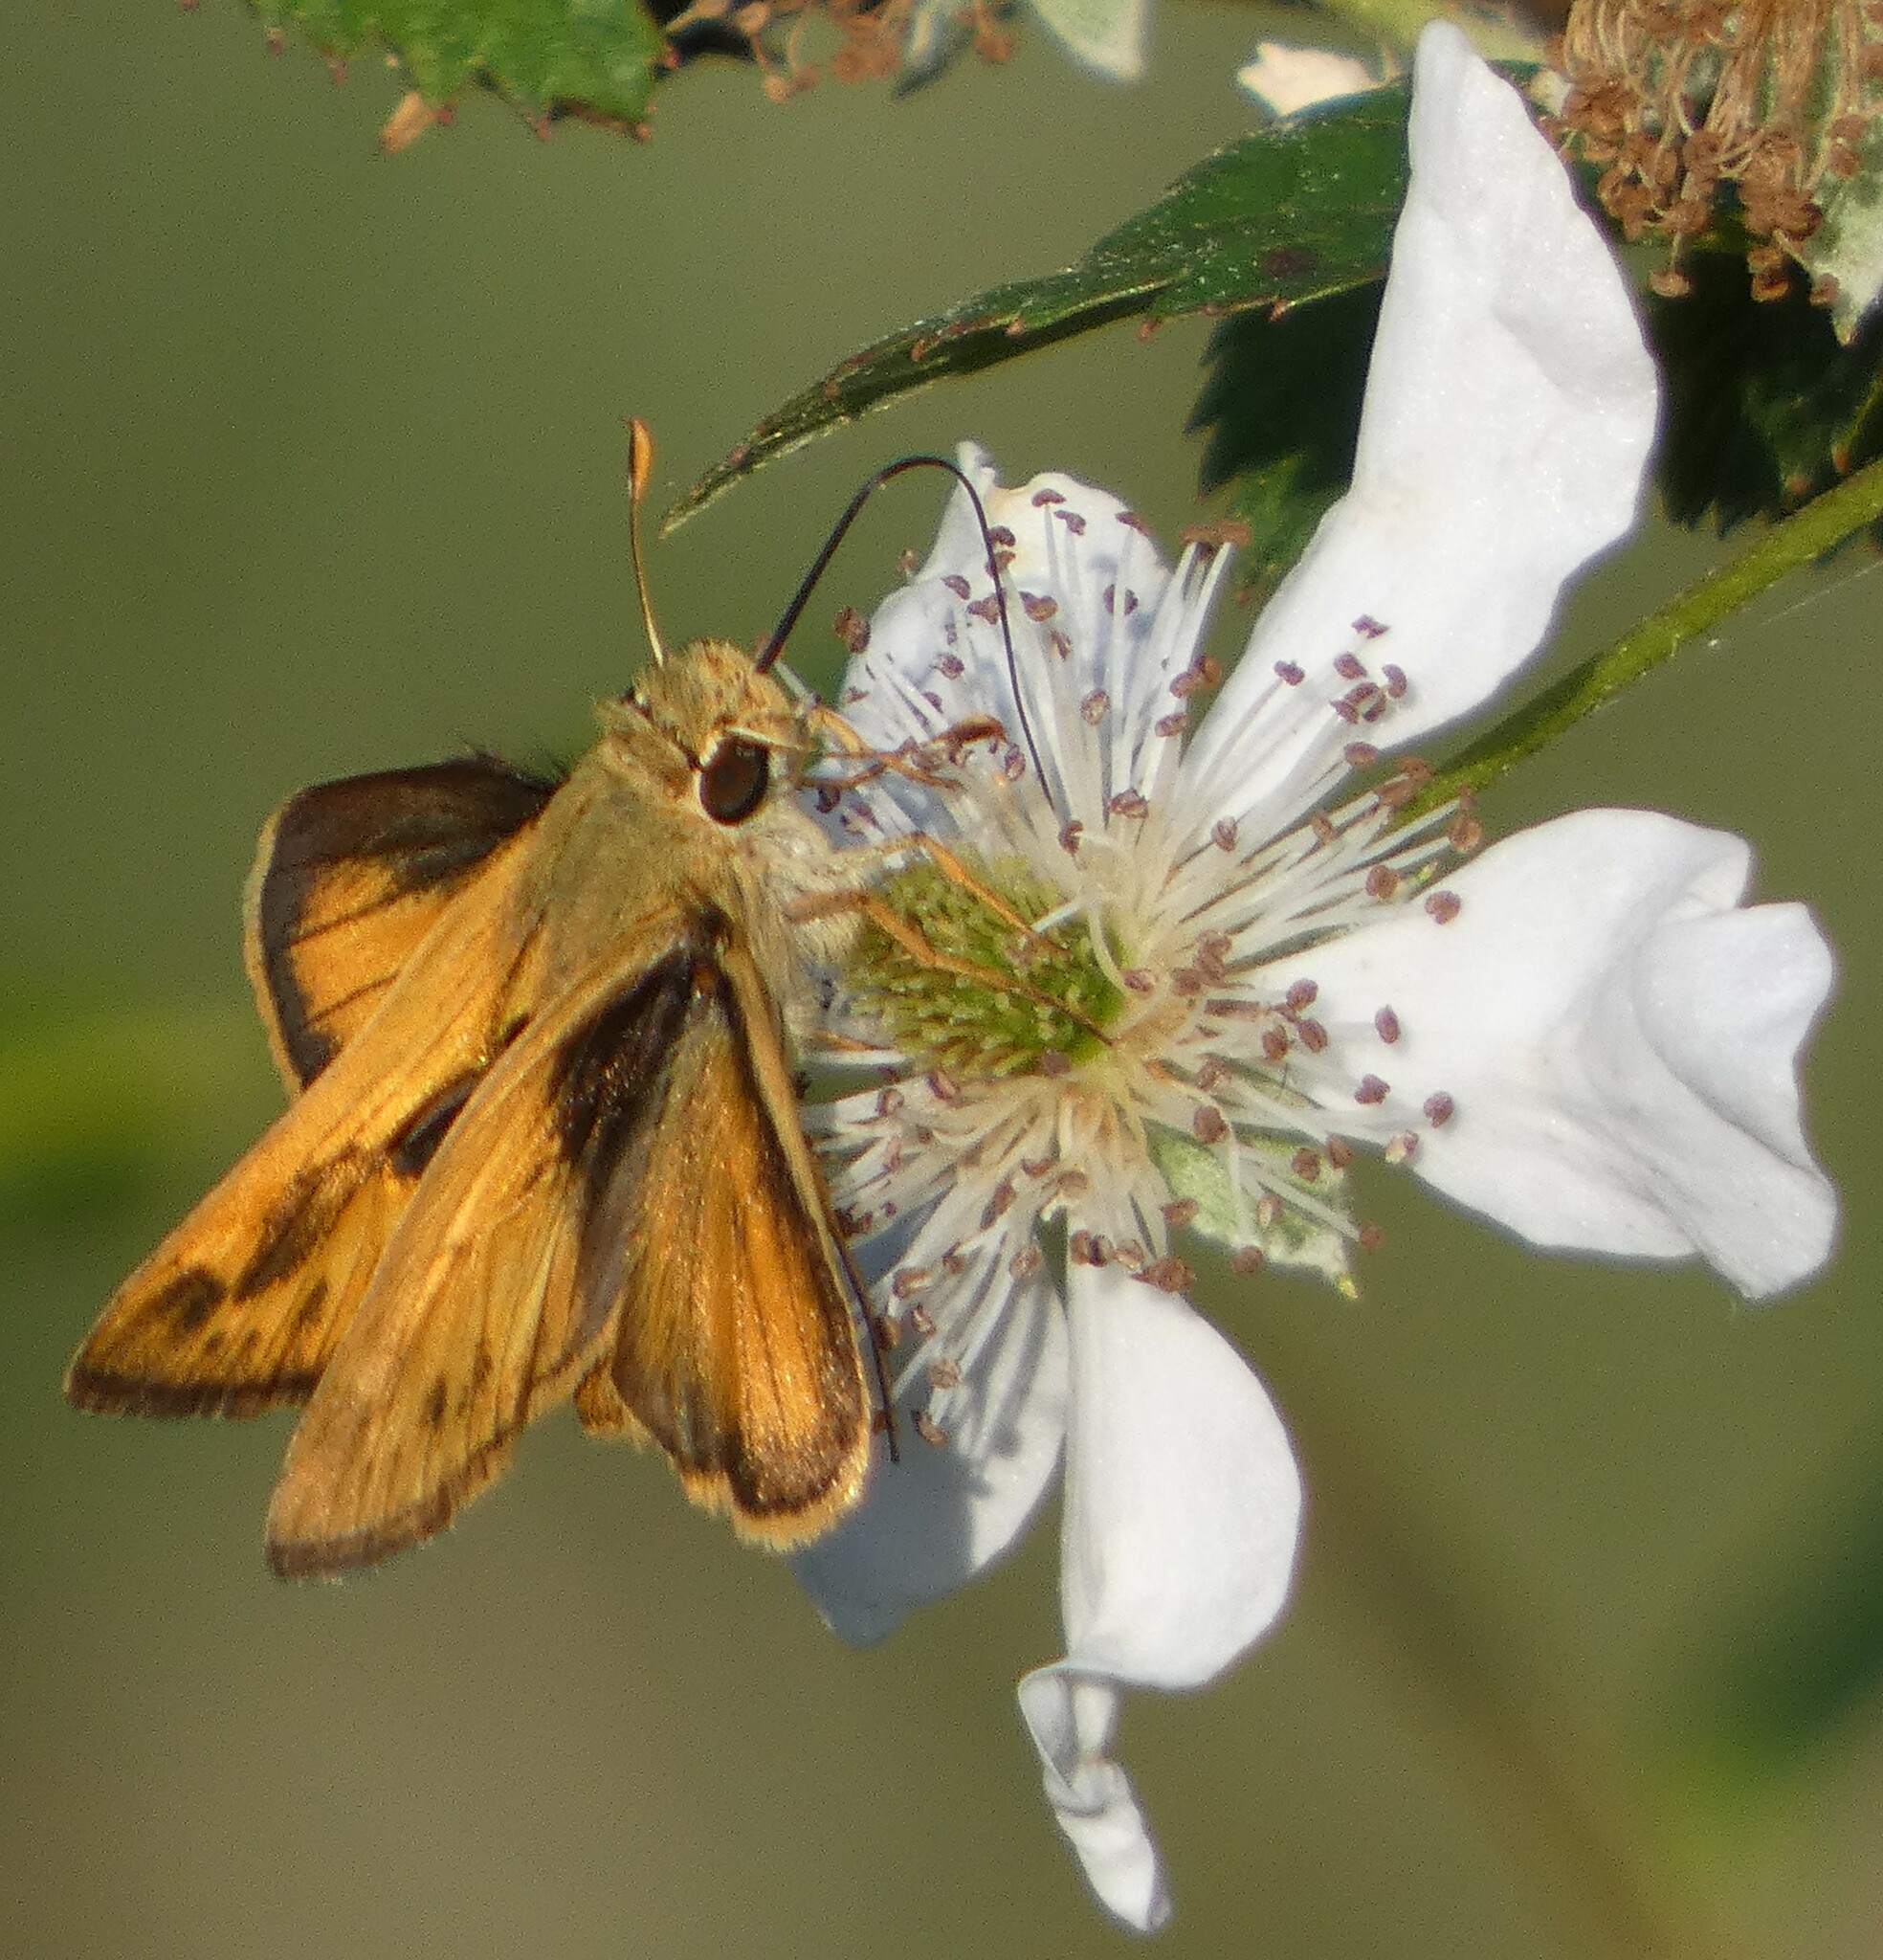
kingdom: Animalia
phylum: Arthropoda
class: Insecta
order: Lepidoptera
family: Hesperiidae
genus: Polites
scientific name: Polites vibex
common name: Whirlabout
